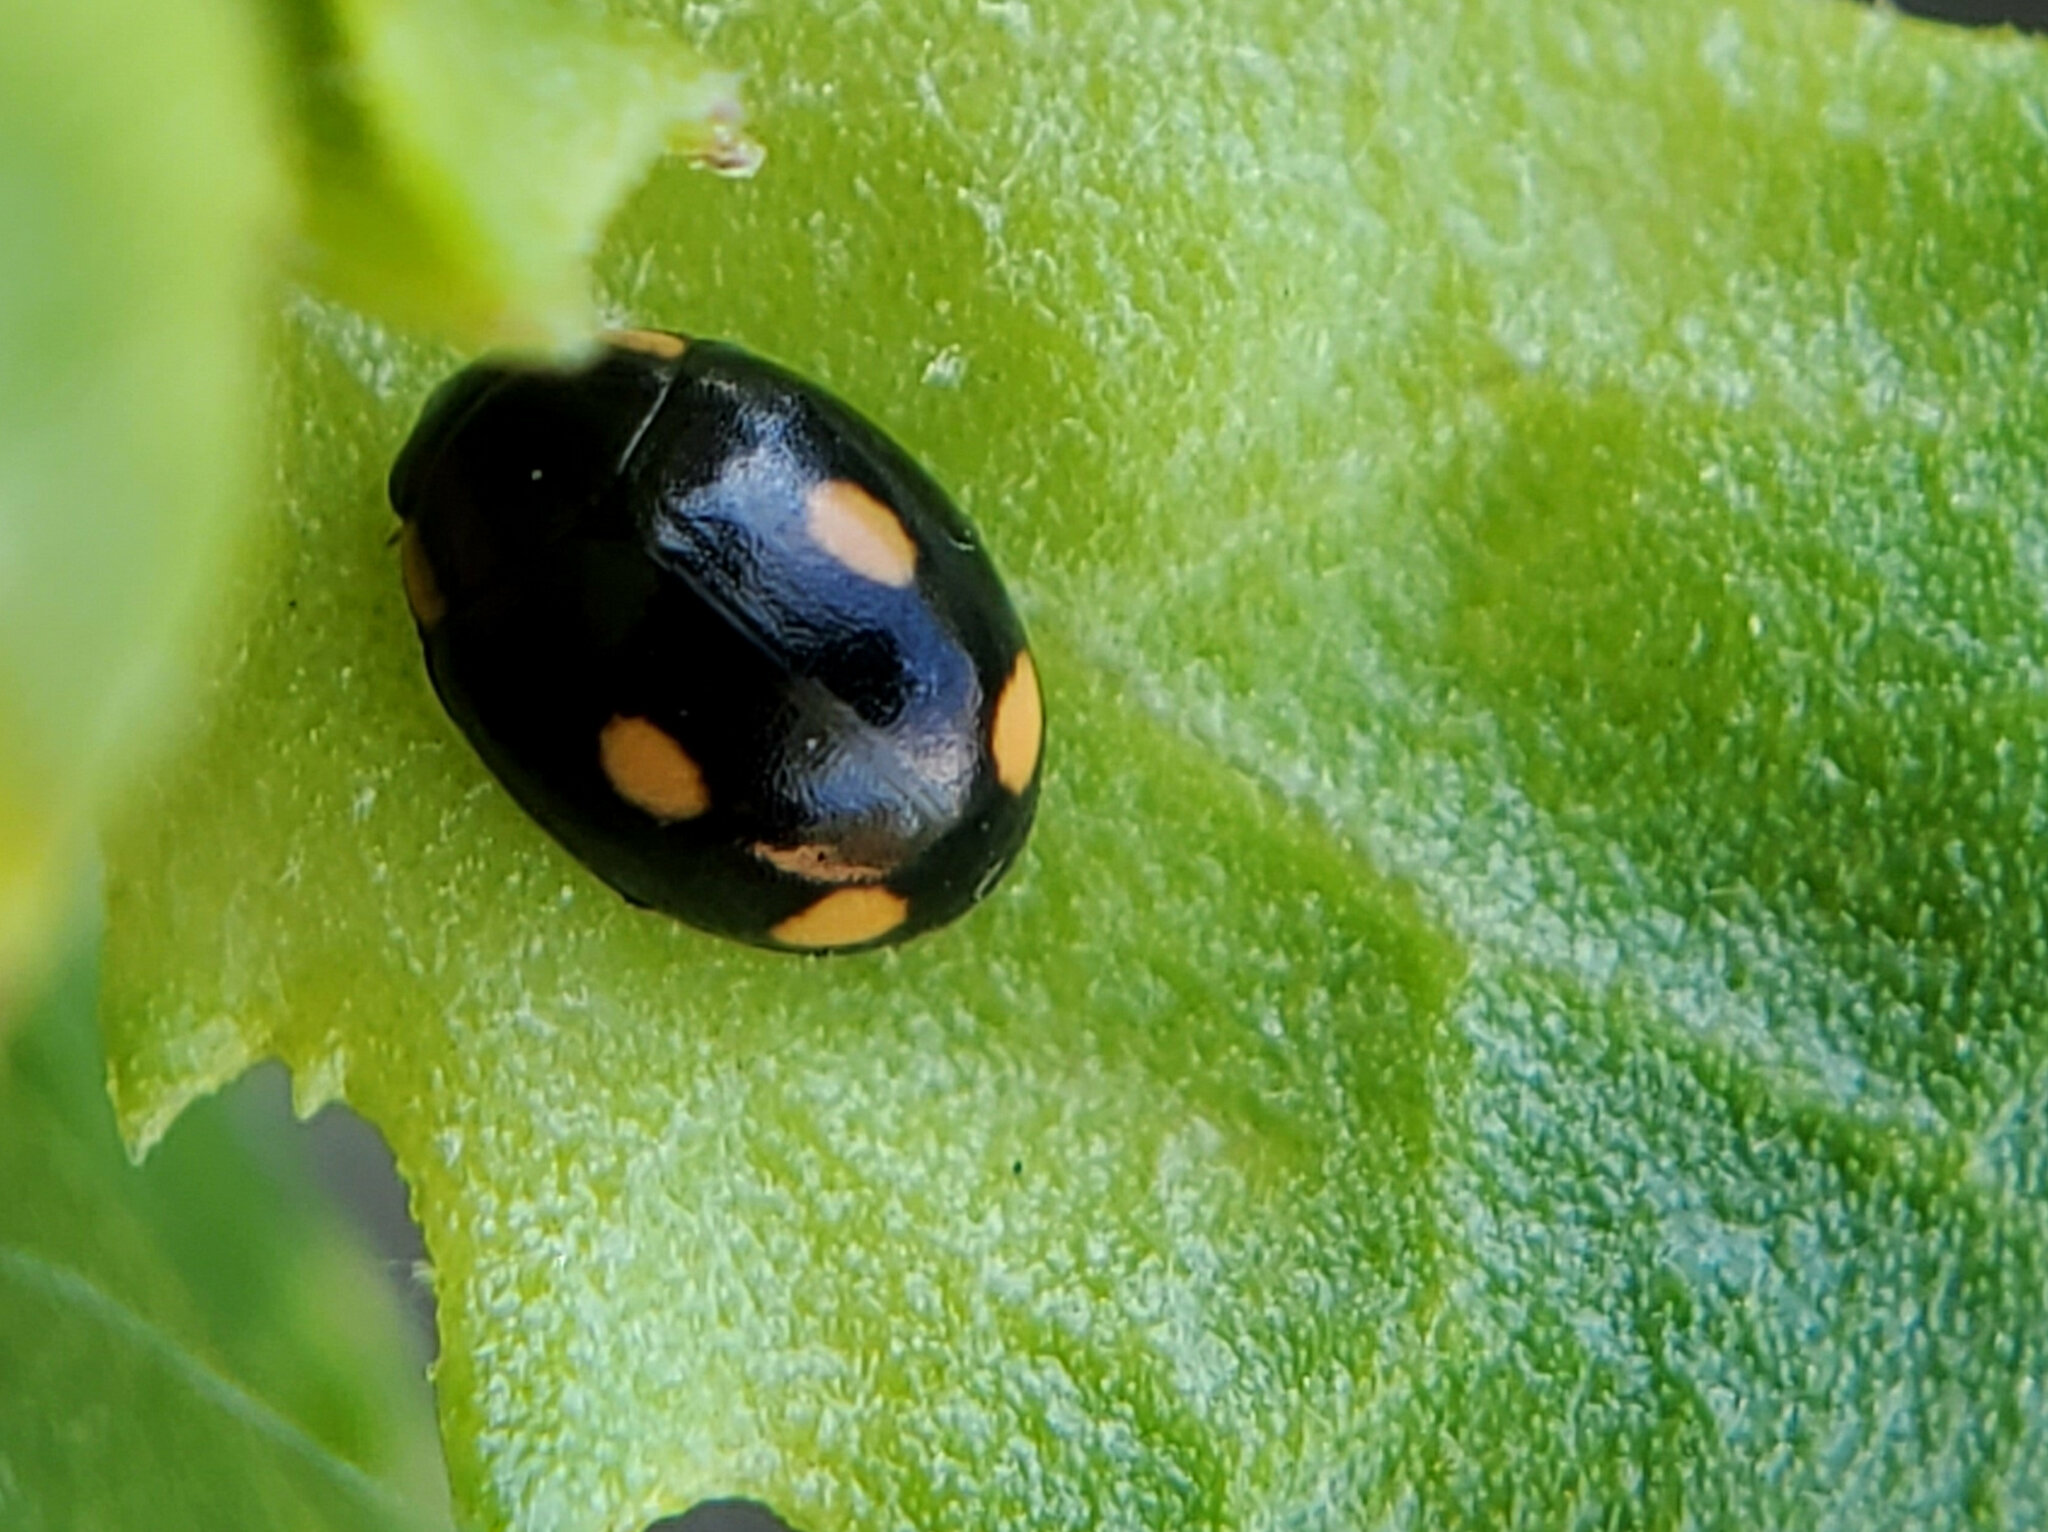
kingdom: Animalia
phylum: Arthropoda
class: Insecta
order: Coleoptera
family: Coccinellidae
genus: Hyperaspis
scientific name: Hyperaspis quadrioculata
